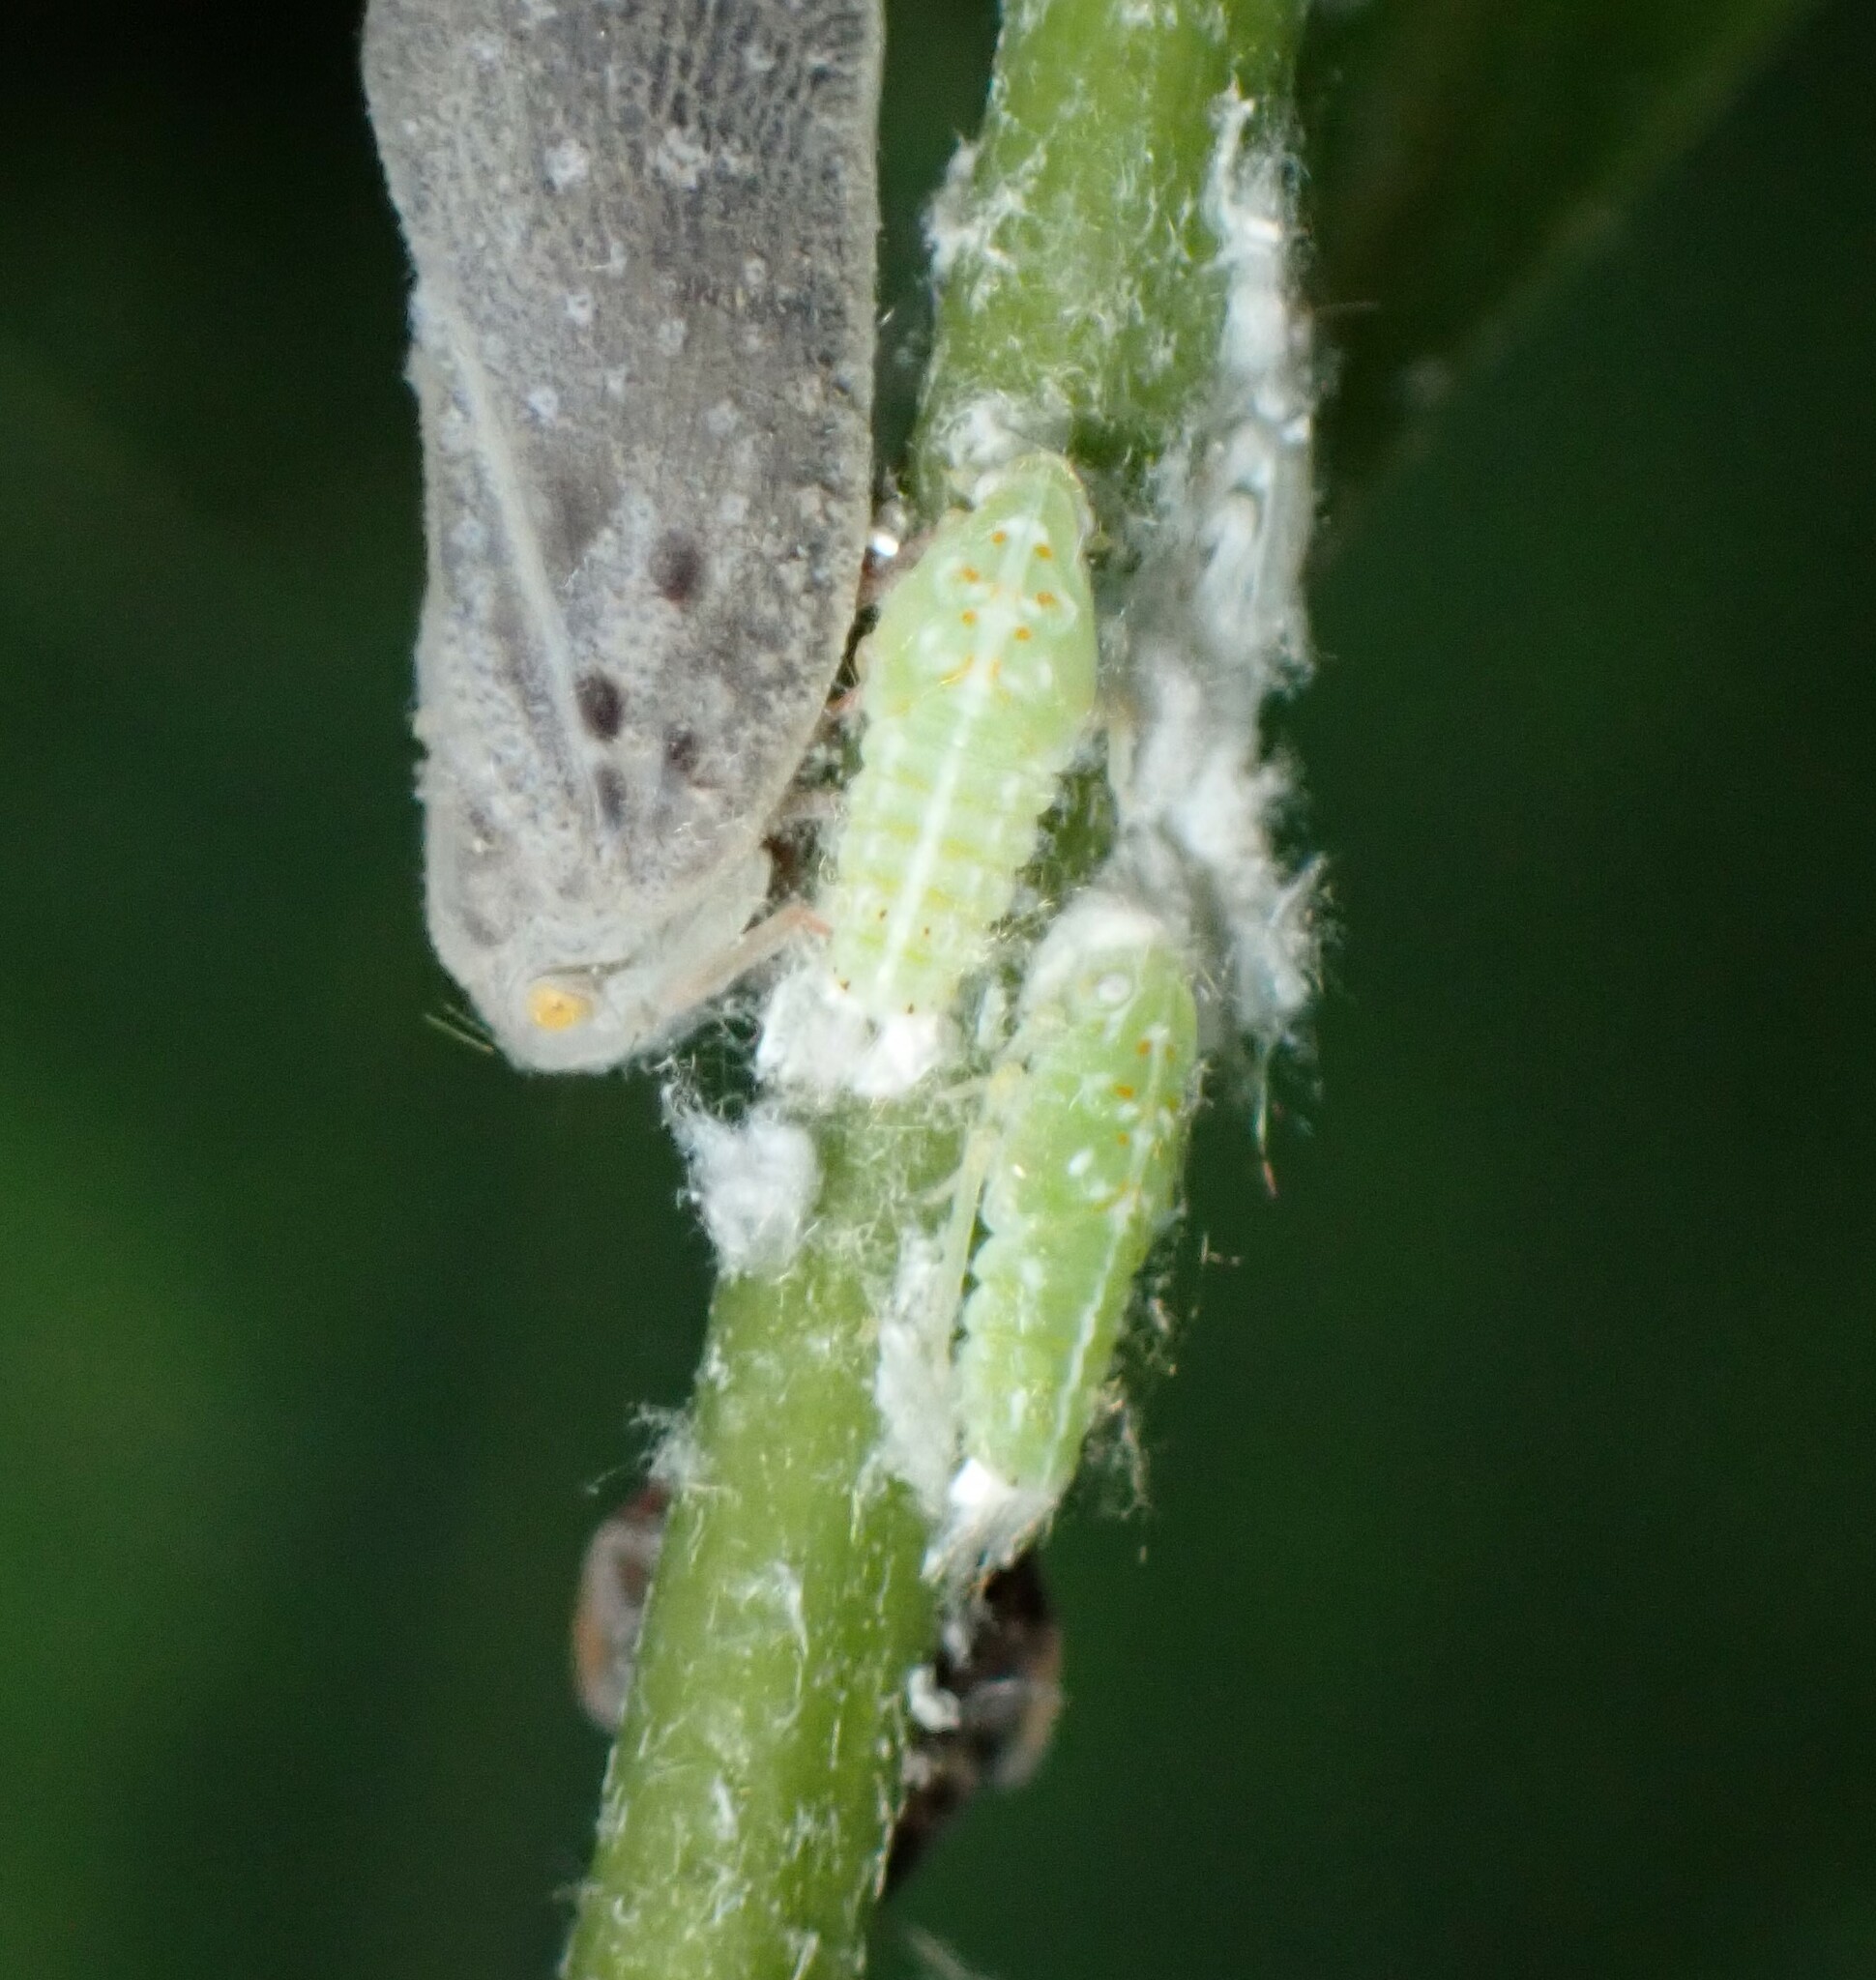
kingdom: Animalia
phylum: Arthropoda
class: Insecta
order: Hemiptera
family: Flatidae
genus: Ormenoides
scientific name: Ormenoides venusta
